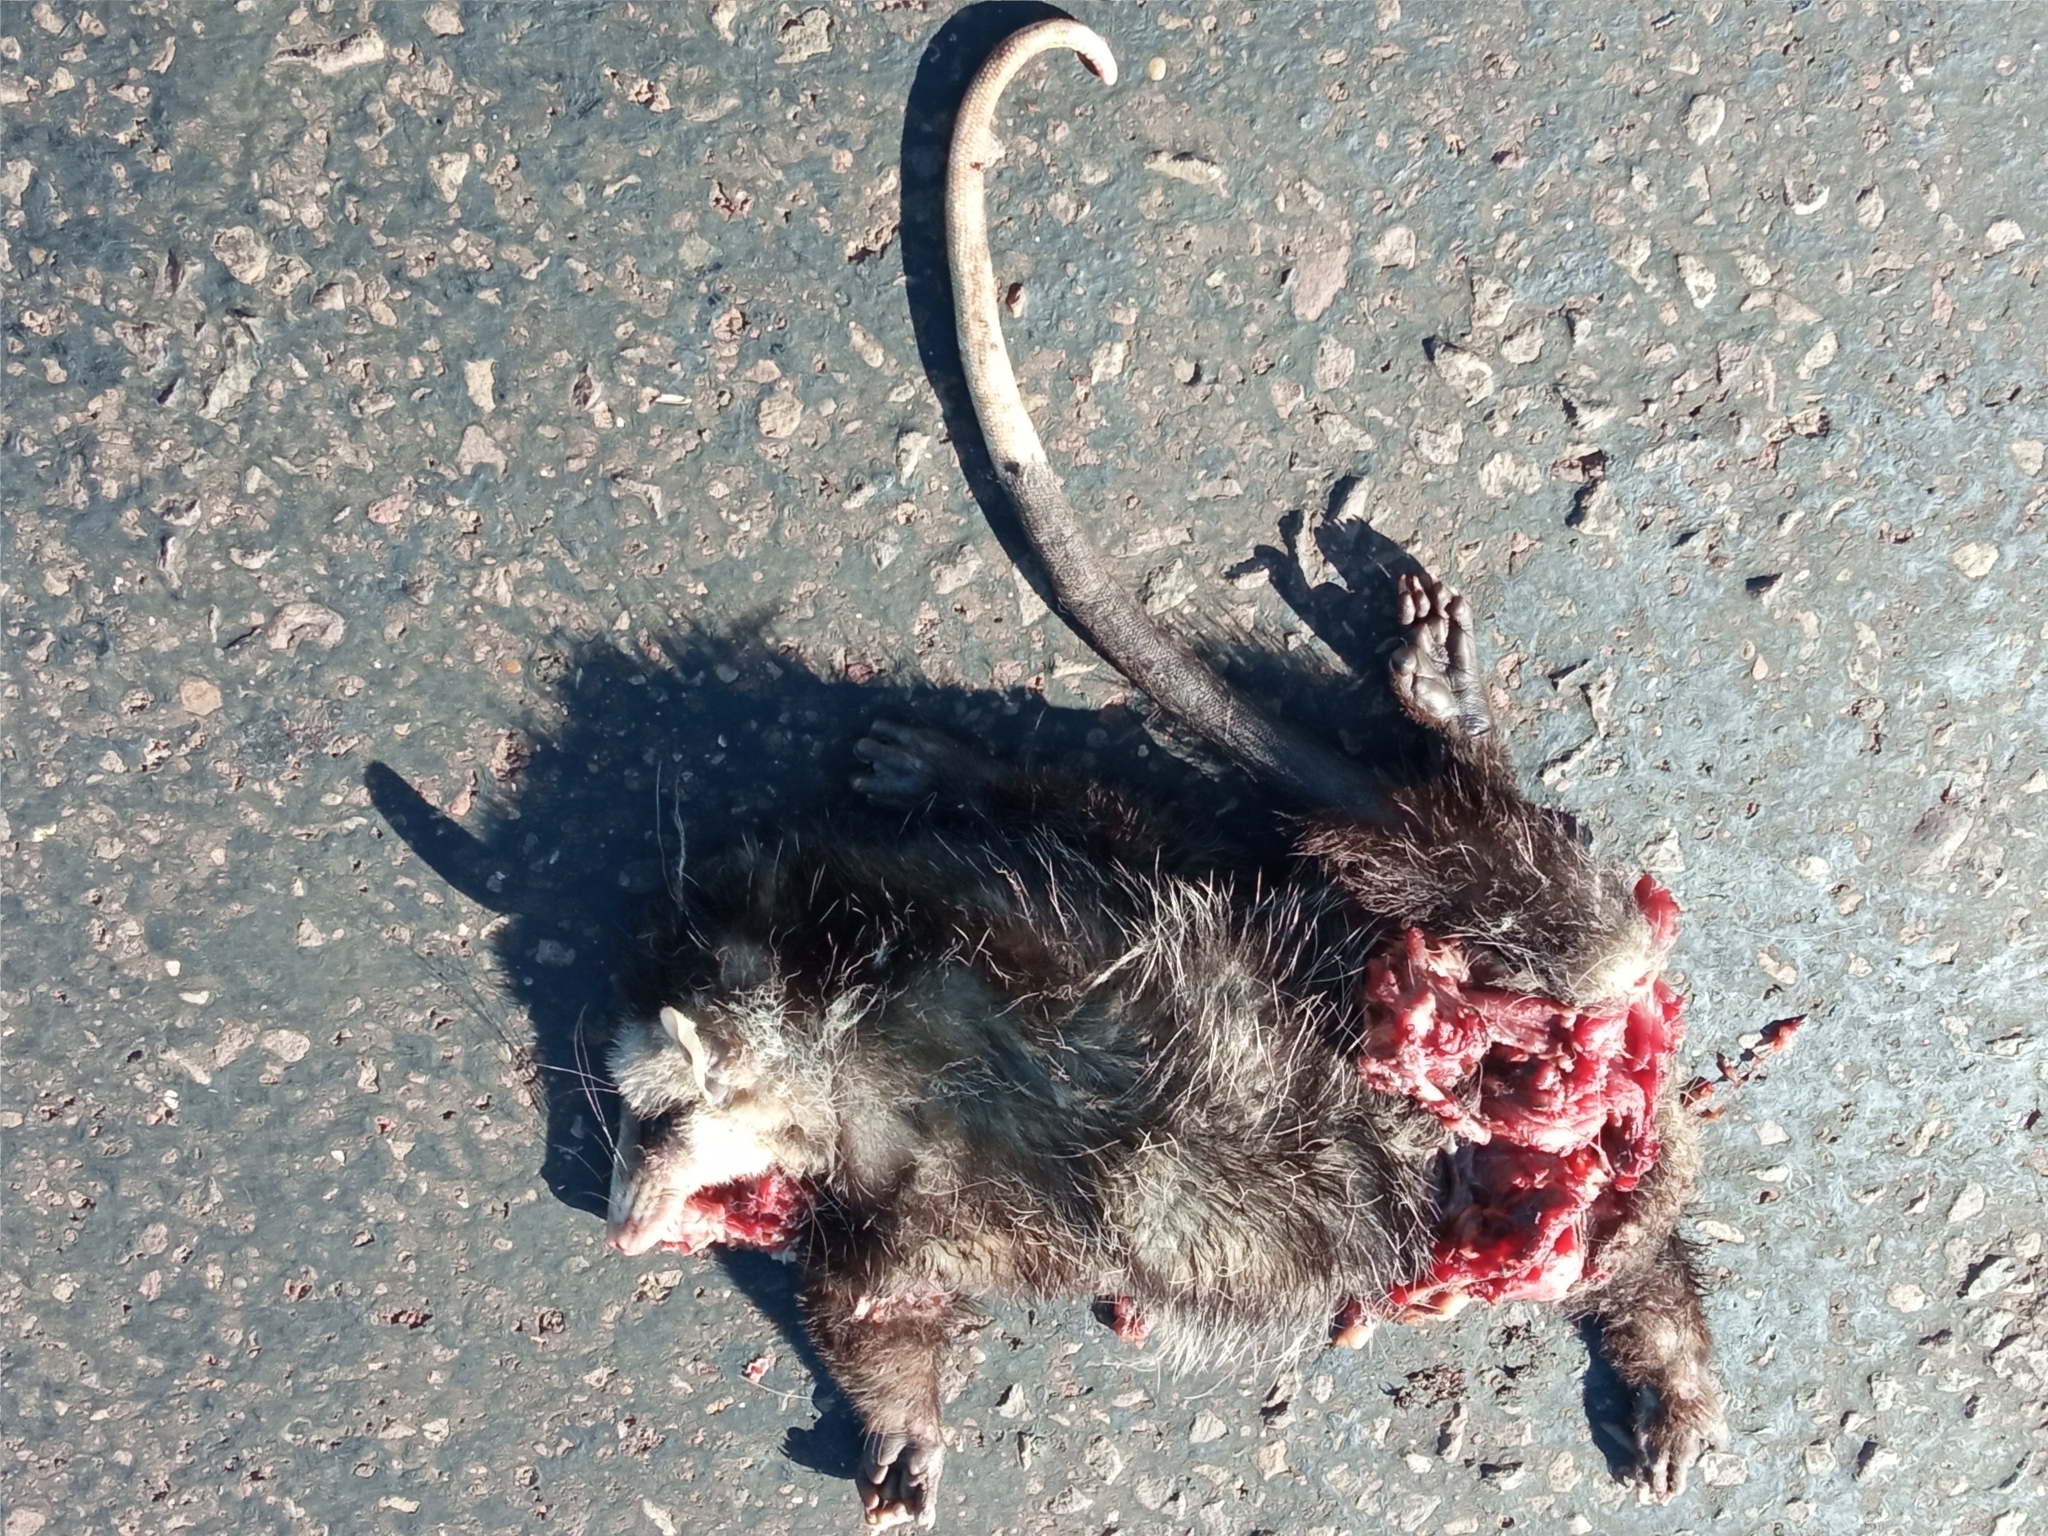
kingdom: Animalia
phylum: Chordata
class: Mammalia
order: Didelphimorphia
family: Didelphidae
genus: Didelphis
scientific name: Didelphis albiventris
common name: White-eared opossum
